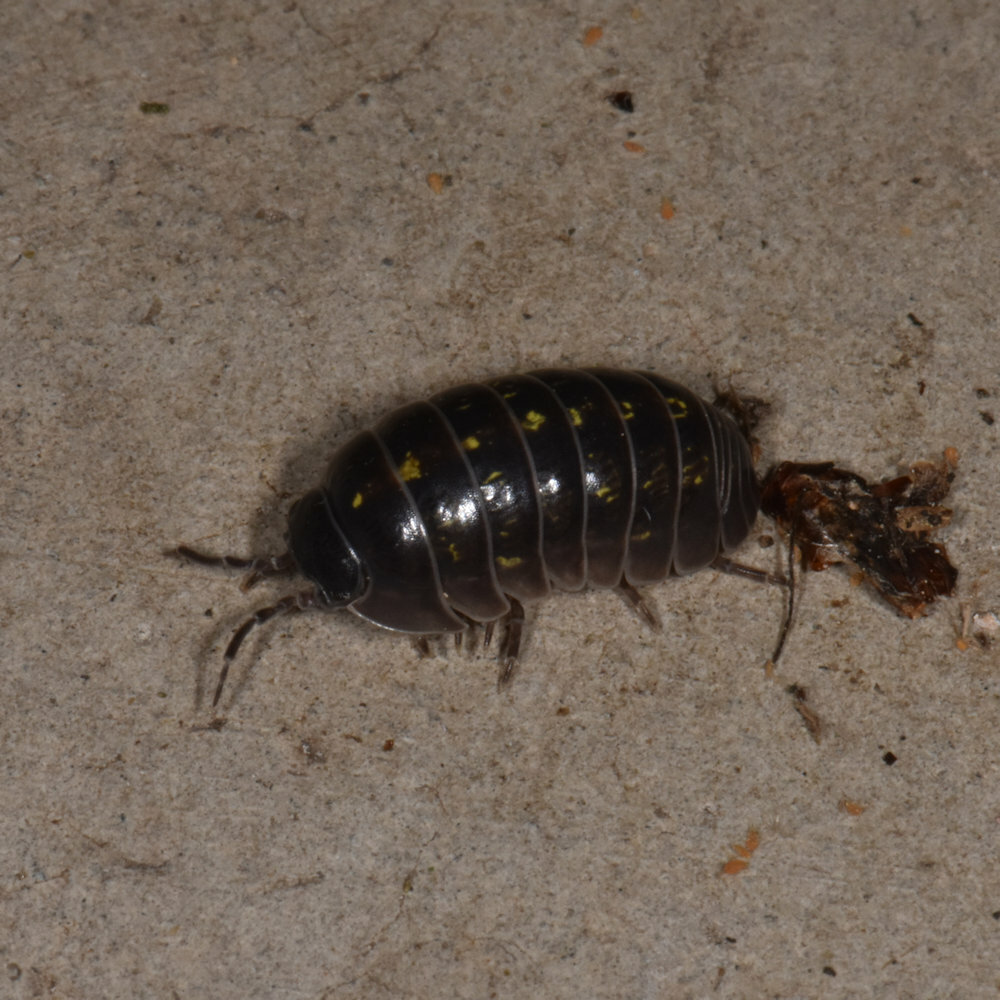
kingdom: Animalia
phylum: Arthropoda
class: Malacostraca
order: Isopoda
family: Armadillidiidae
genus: Armadillidium
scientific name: Armadillidium vulgare
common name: Common pill woodlouse
